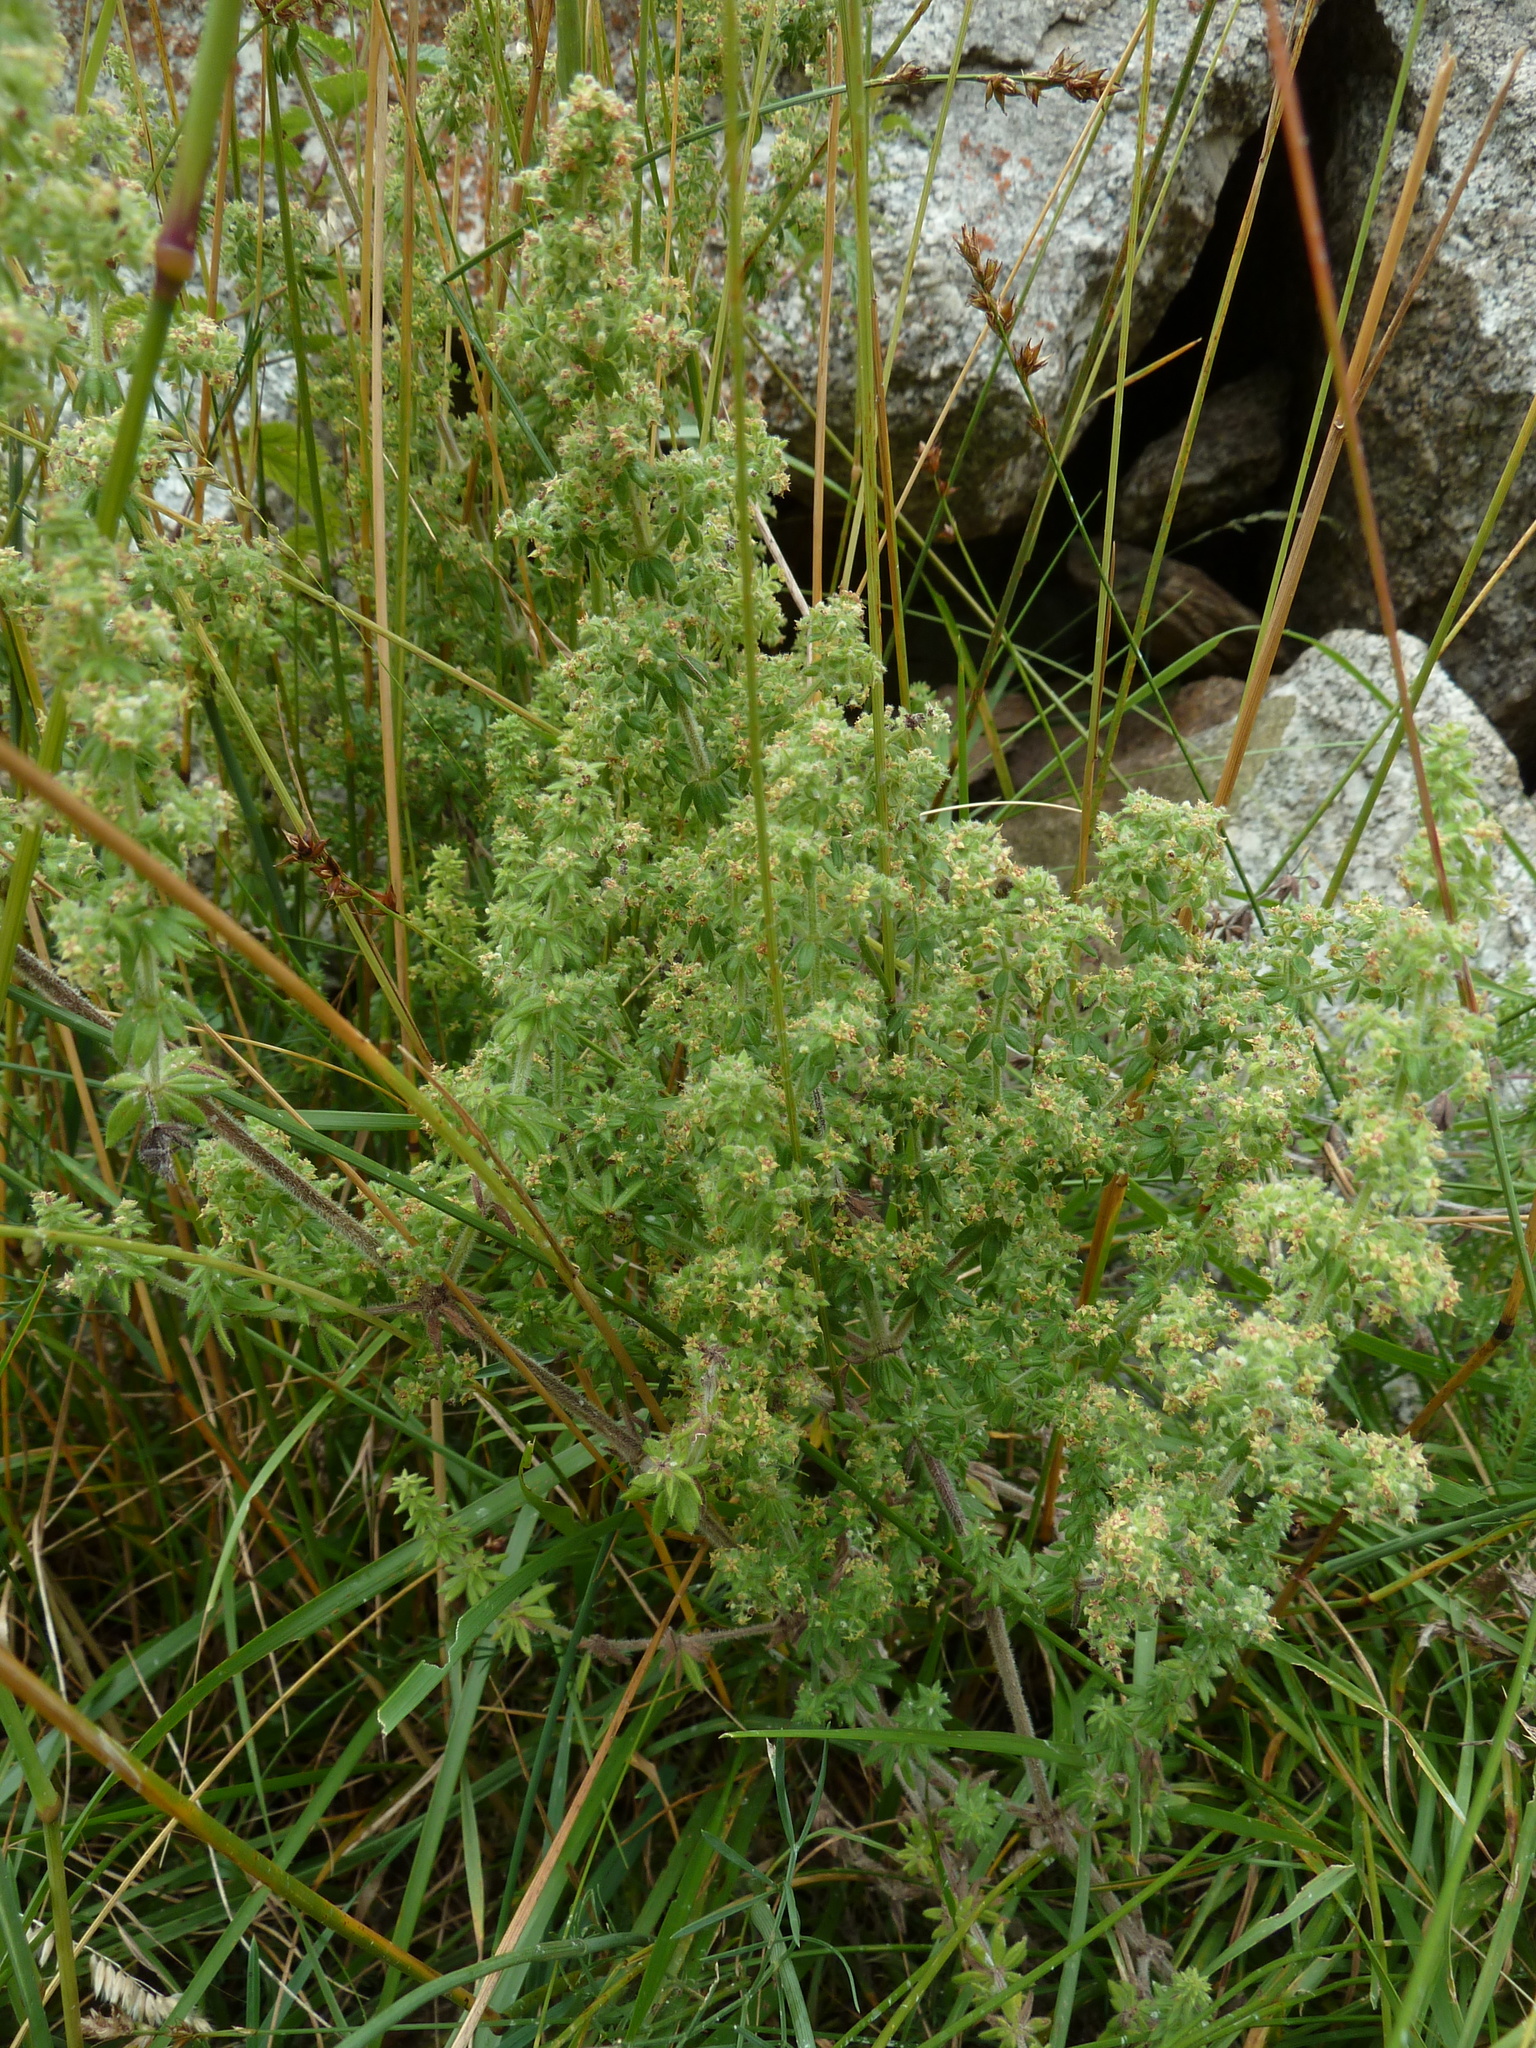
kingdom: Plantae
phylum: Tracheophyta
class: Magnoliopsida
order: Gentianales
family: Rubiaceae
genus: Galium
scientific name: Galium maritimum
